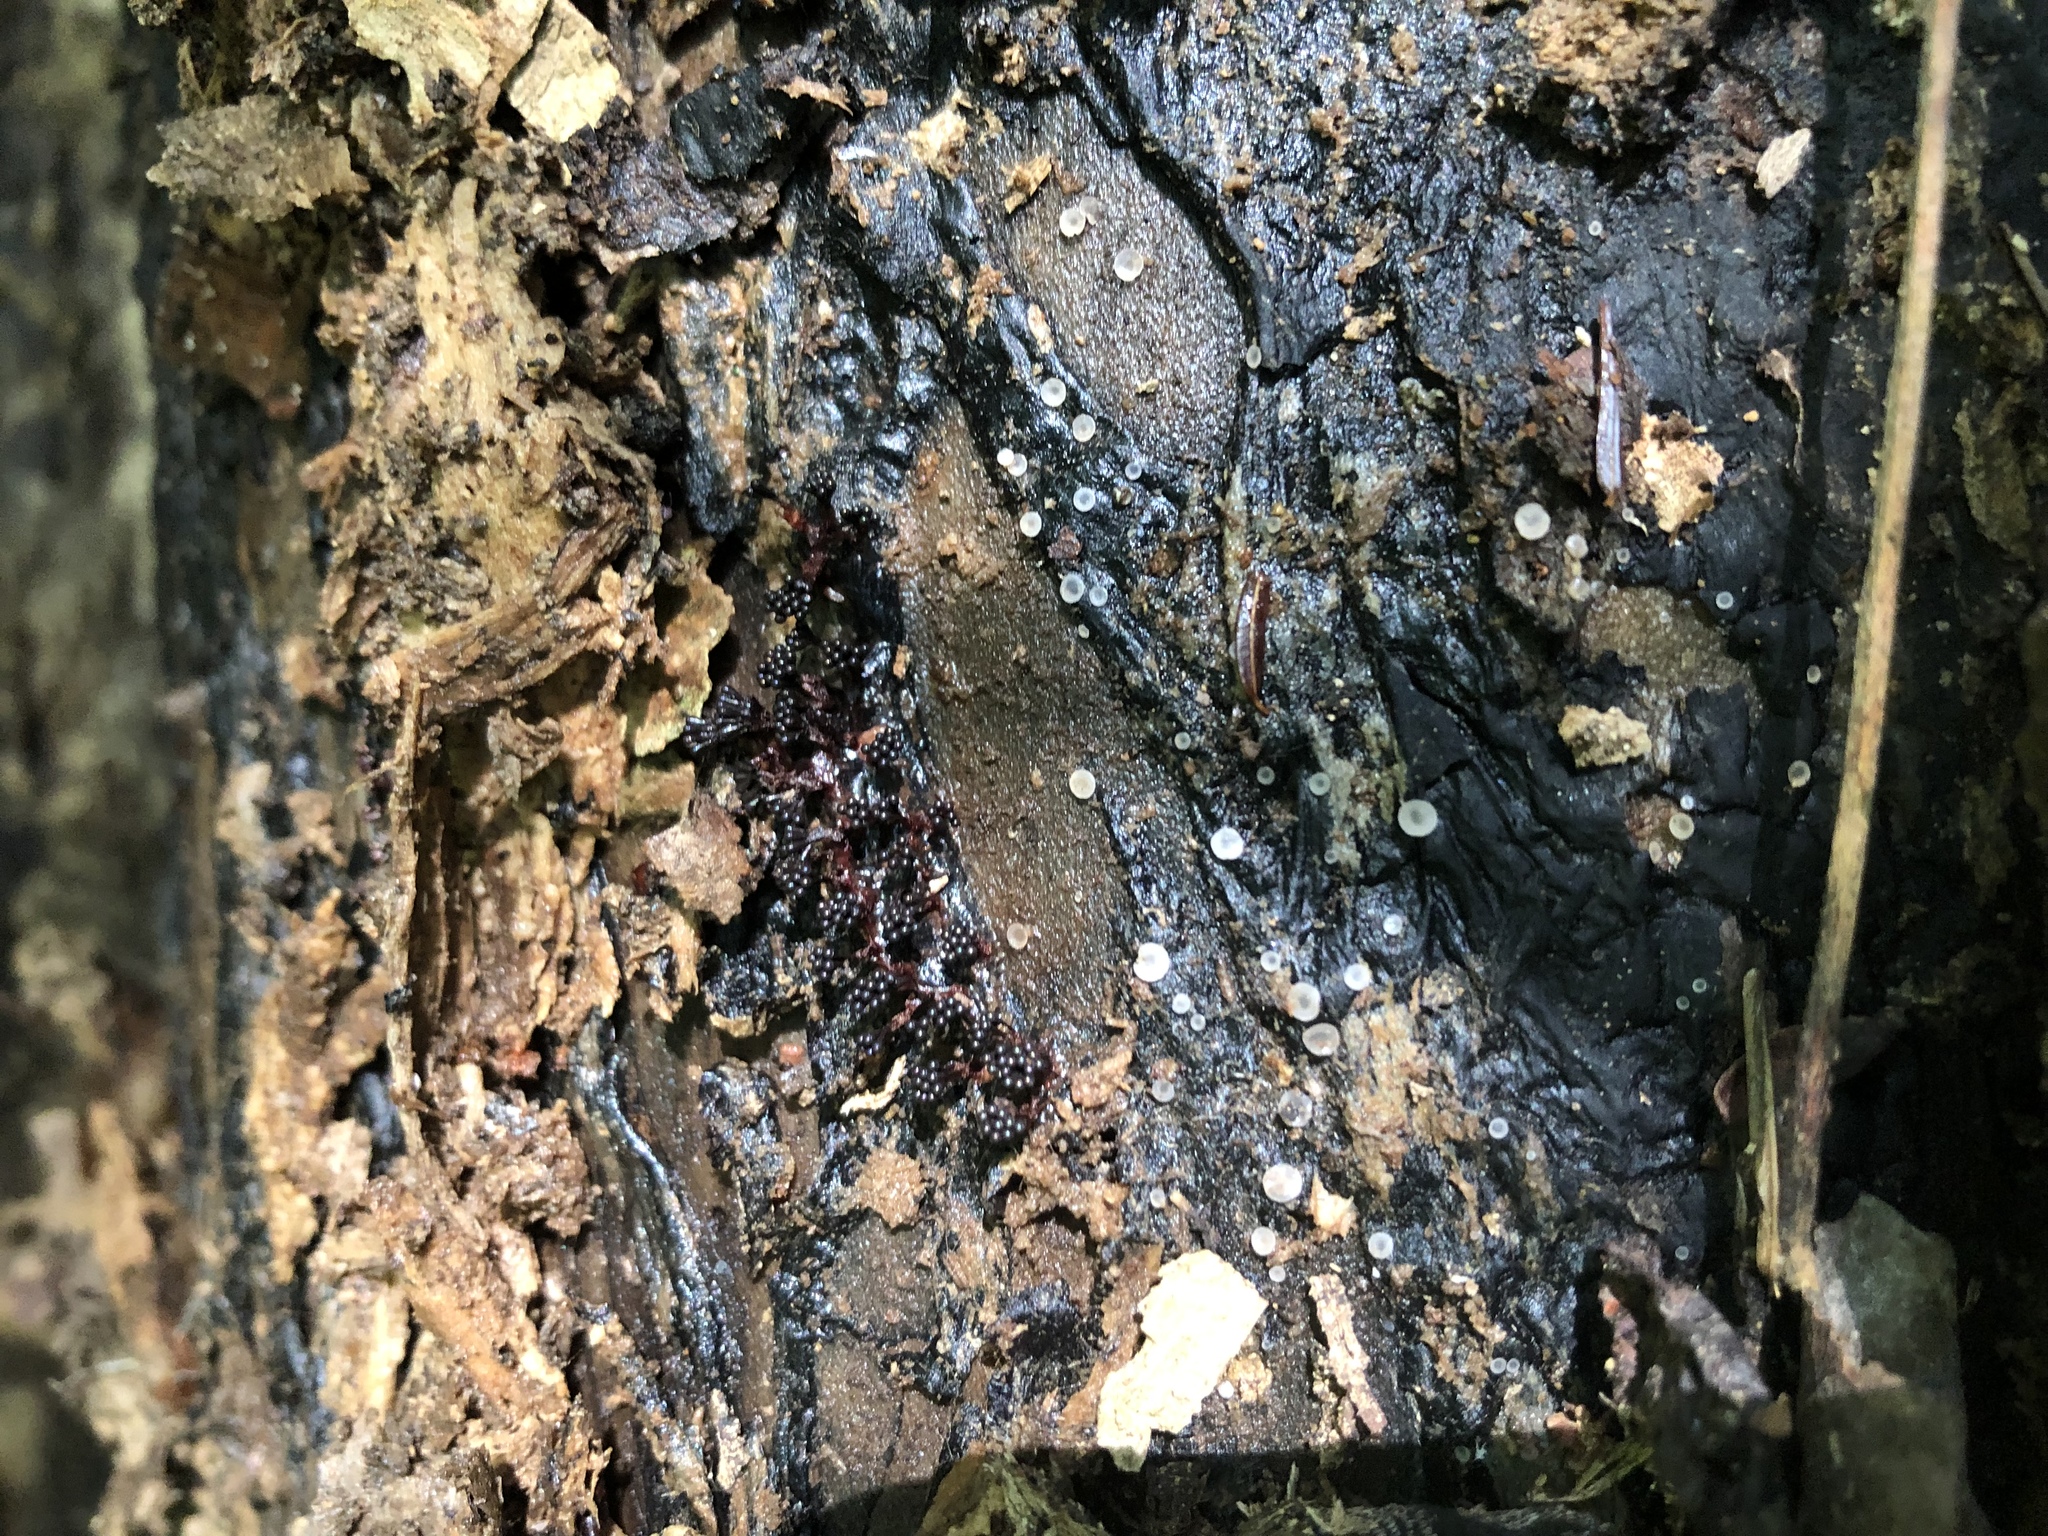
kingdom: Protozoa
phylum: Mycetozoa
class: Myxomycetes
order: Trichiales
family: Trichiaceae
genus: Metatrichia
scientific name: Metatrichia vesparia
